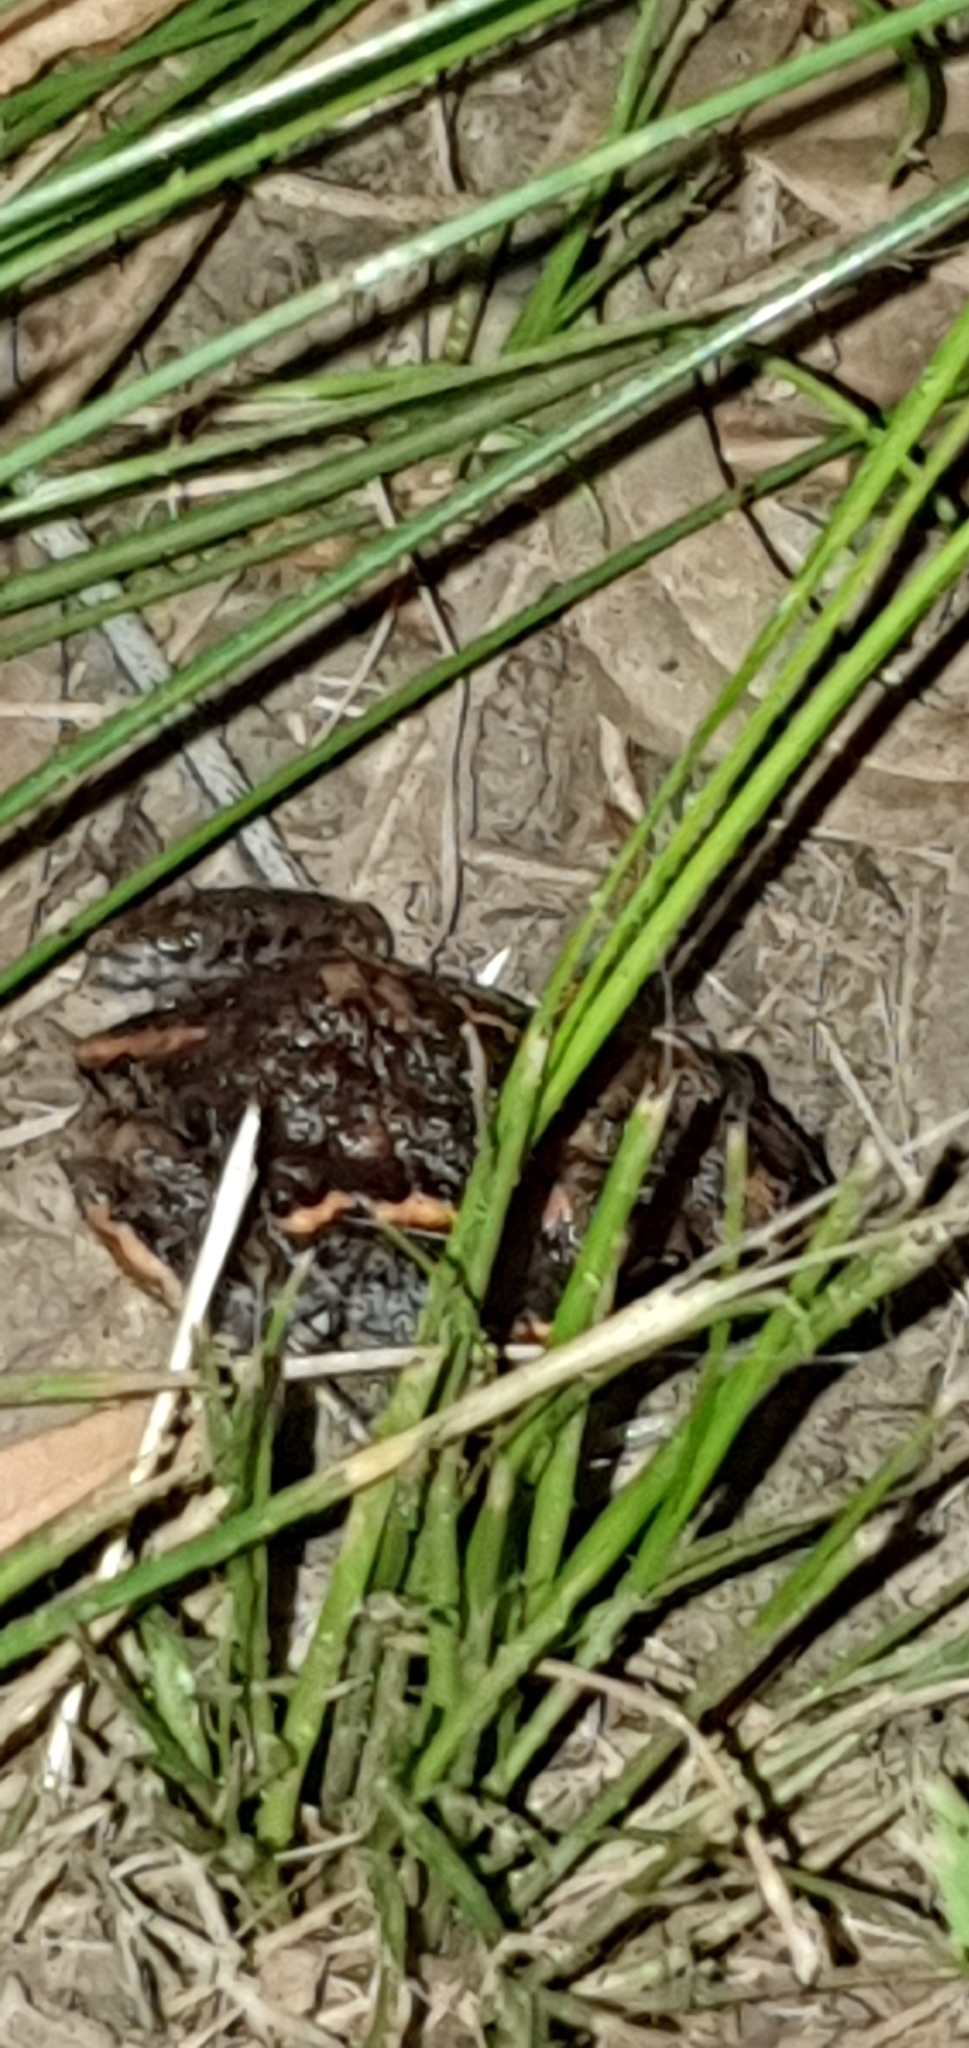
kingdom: Animalia
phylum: Chordata
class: Amphibia
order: Anura
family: Limnodynastidae
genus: Limnodynastes
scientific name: Limnodynastes salmini
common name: Salmon-striped frog
